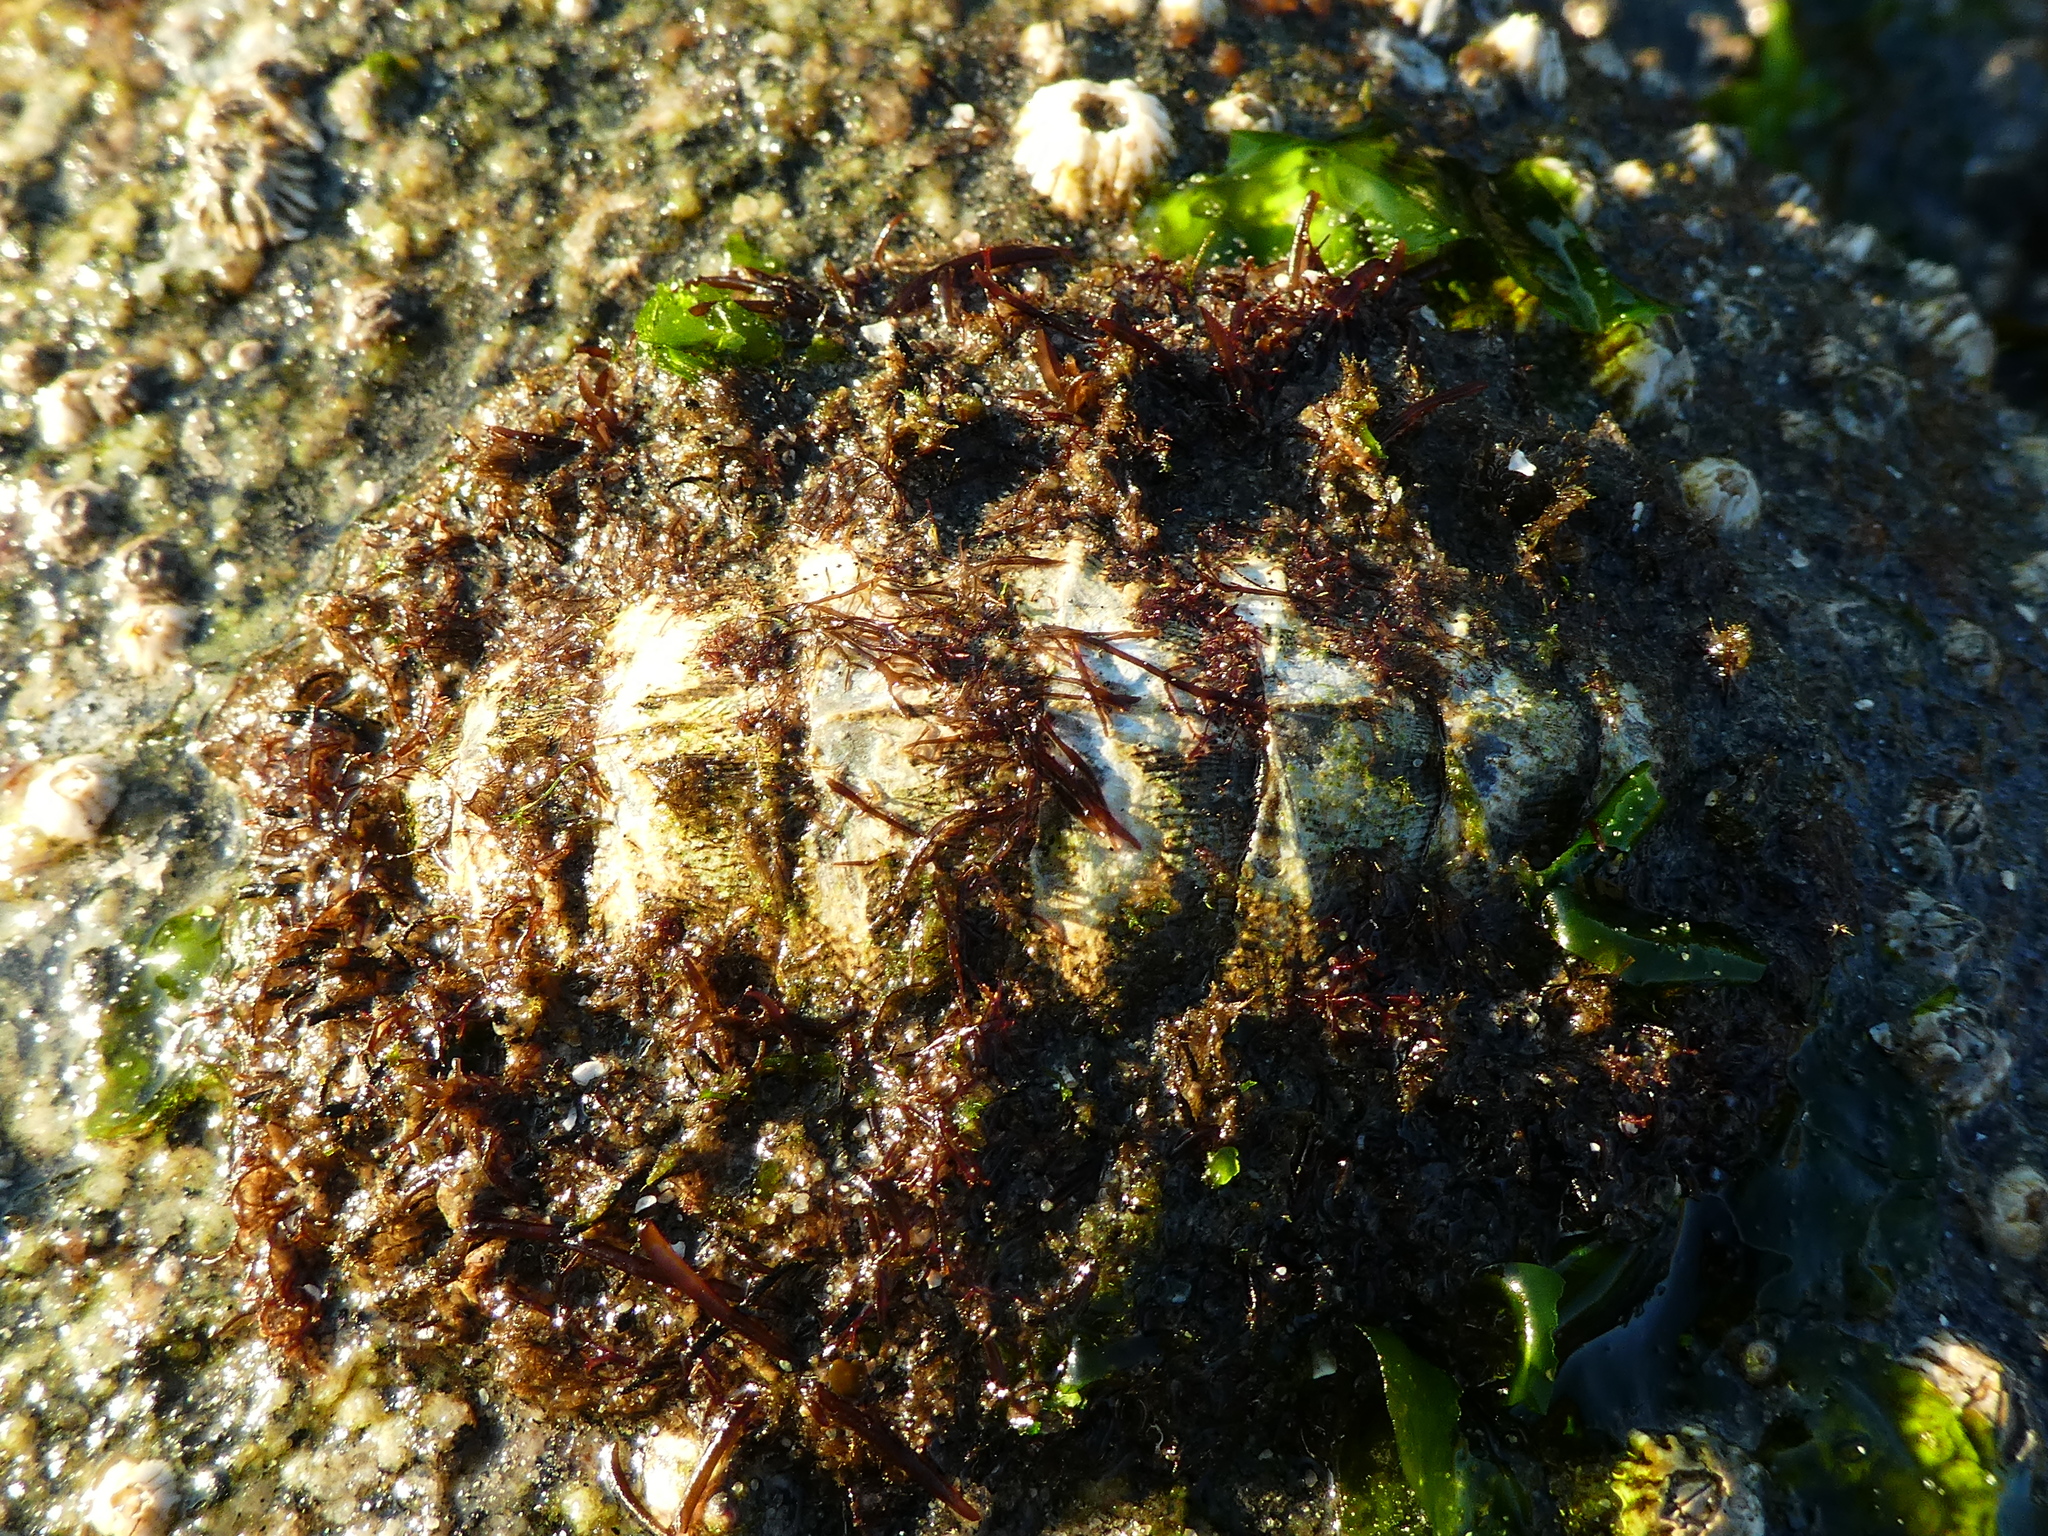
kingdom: Animalia
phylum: Mollusca
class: Polyplacophora
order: Chitonida
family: Mopaliidae
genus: Mopalia
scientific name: Mopalia muscosa
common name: Mossy chiton
